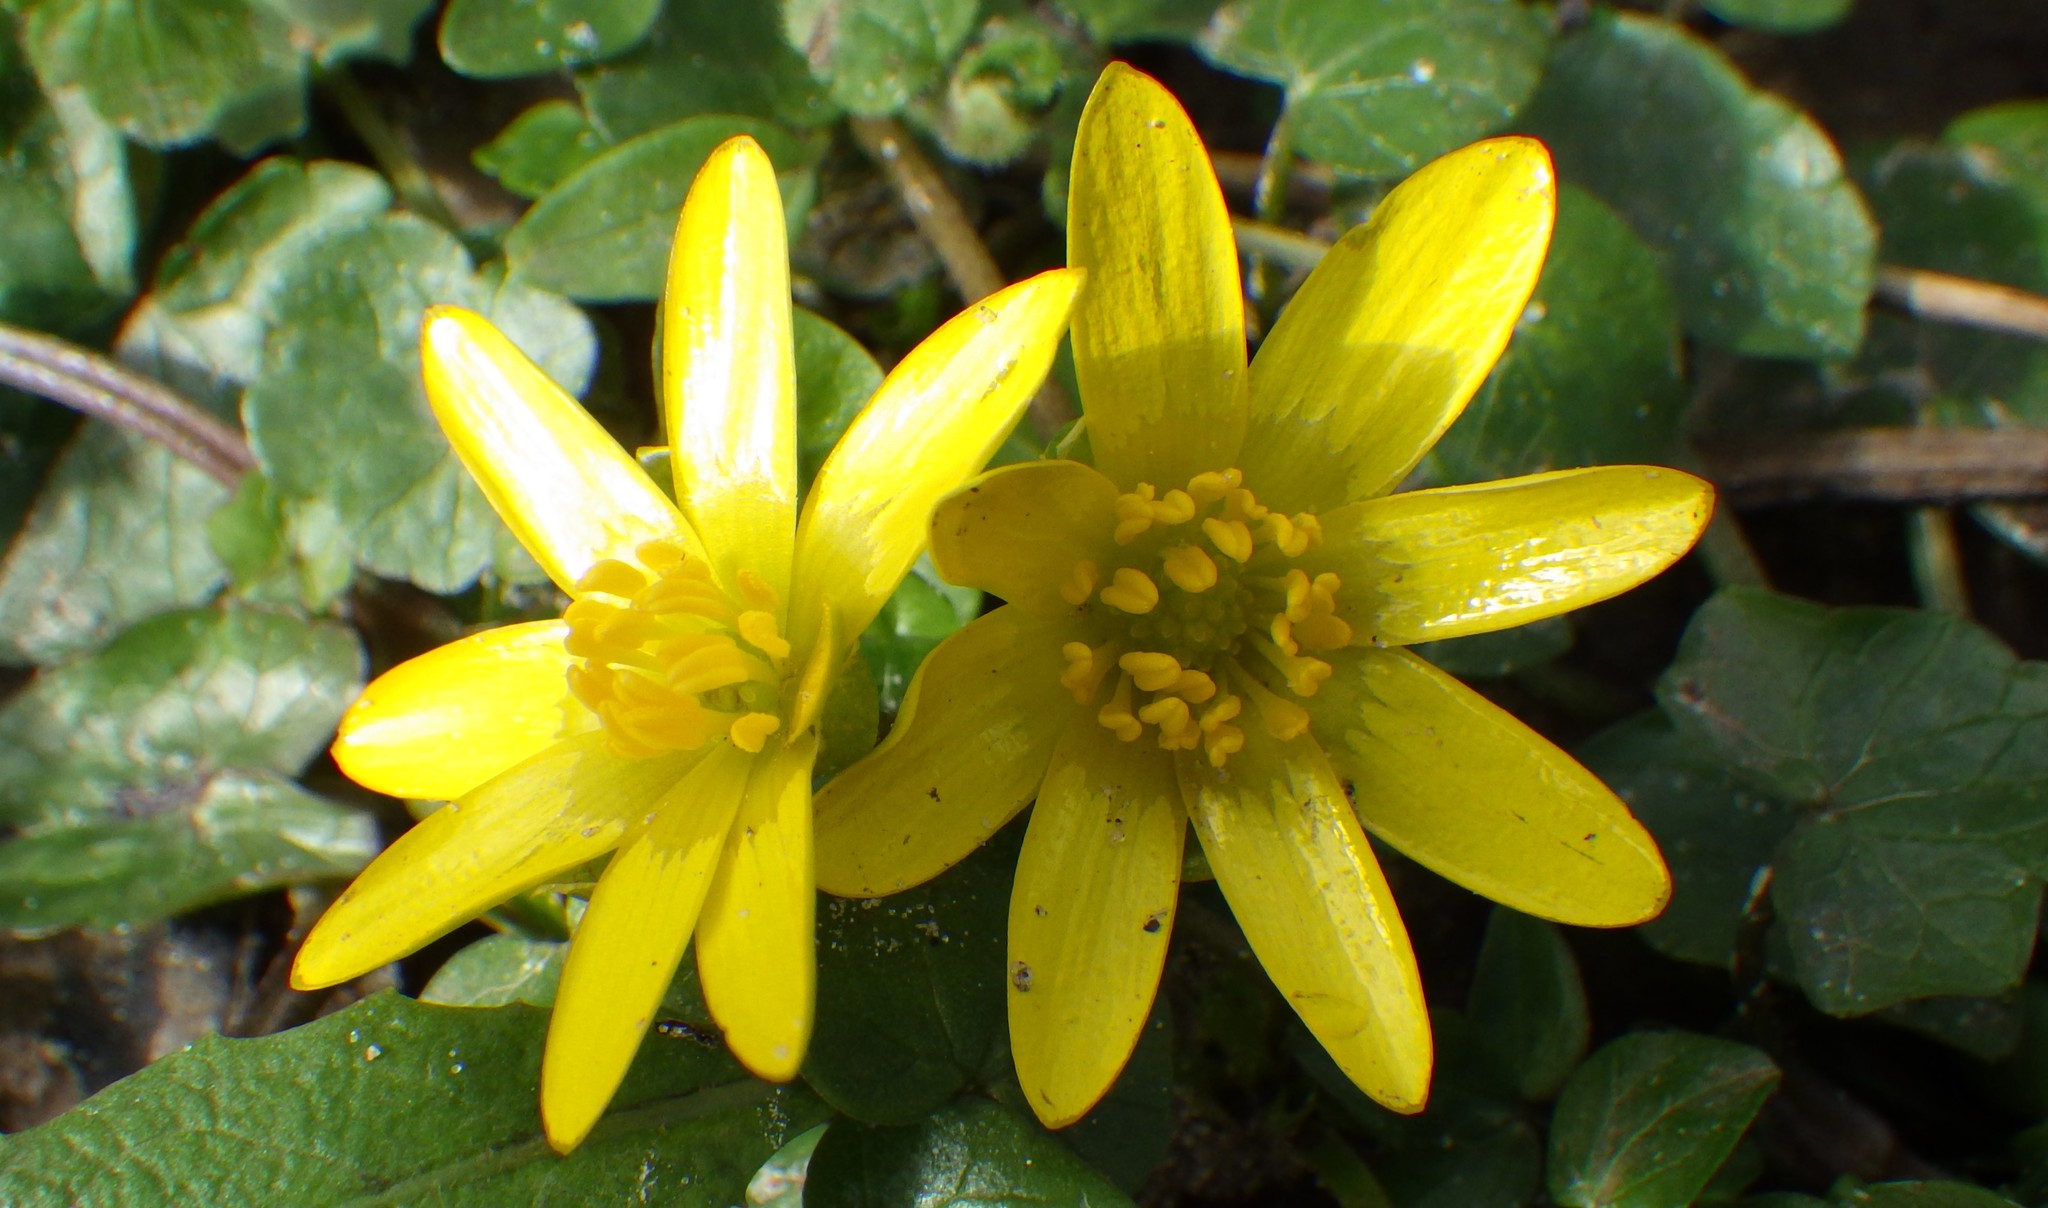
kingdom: Plantae
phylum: Tracheophyta
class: Magnoliopsida
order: Ranunculales
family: Ranunculaceae
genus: Ficaria
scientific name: Ficaria verna
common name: Lesser celandine
